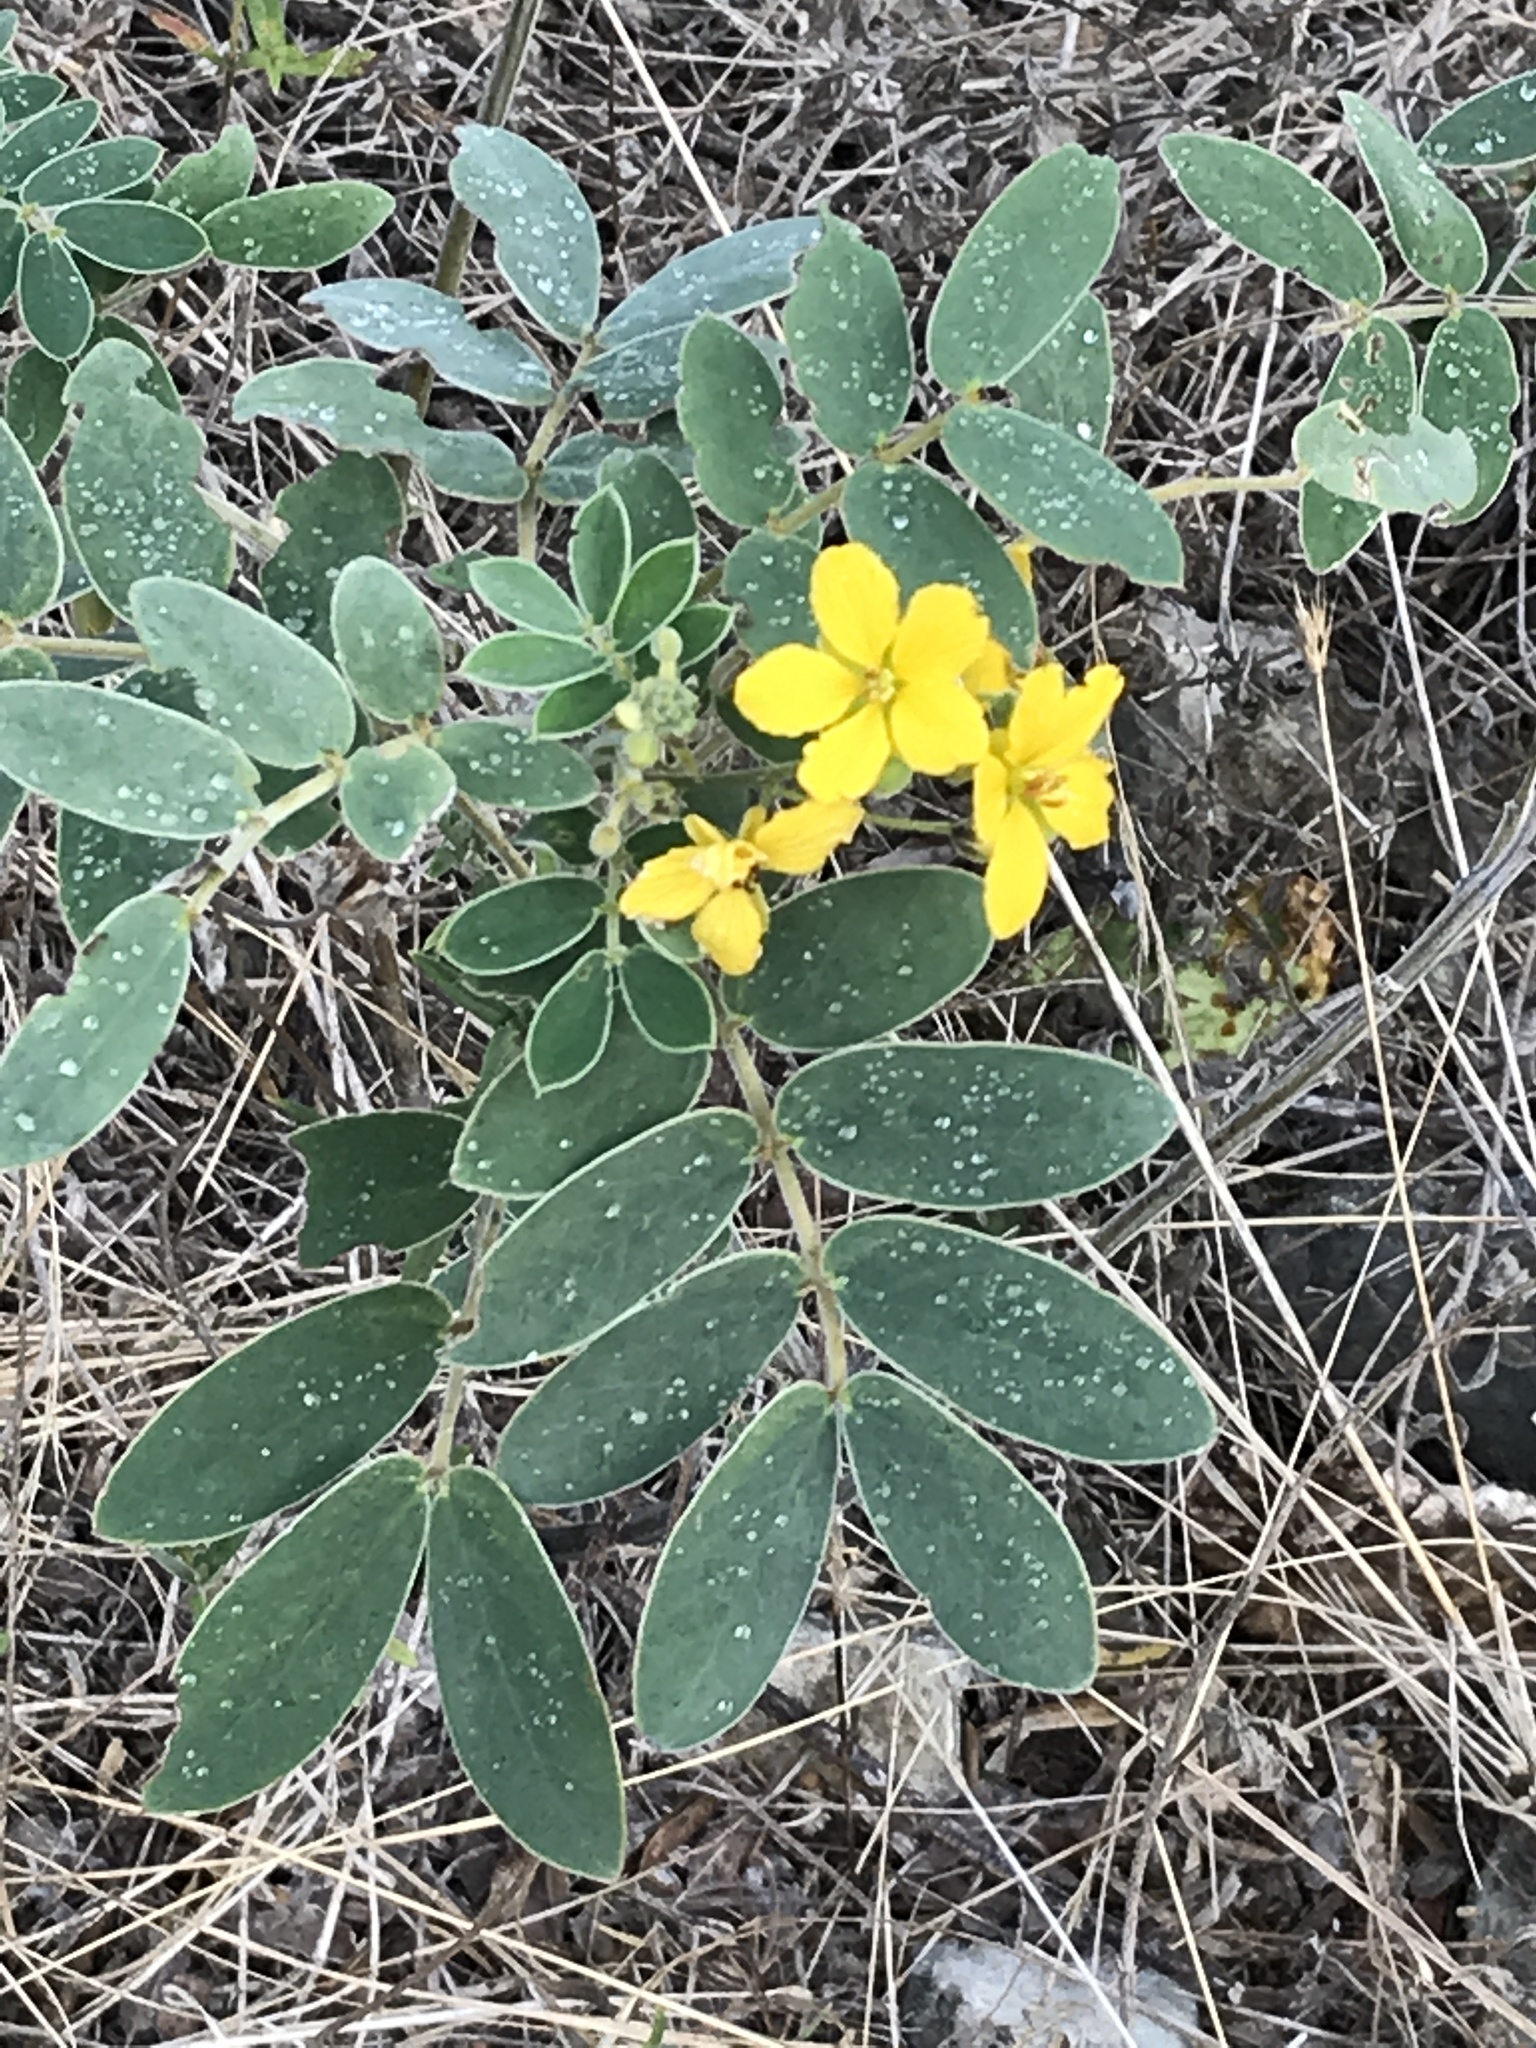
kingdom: Plantae
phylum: Tracheophyta
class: Magnoliopsida
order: Fabales
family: Fabaceae
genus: Senna
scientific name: Senna lindheimeriana
